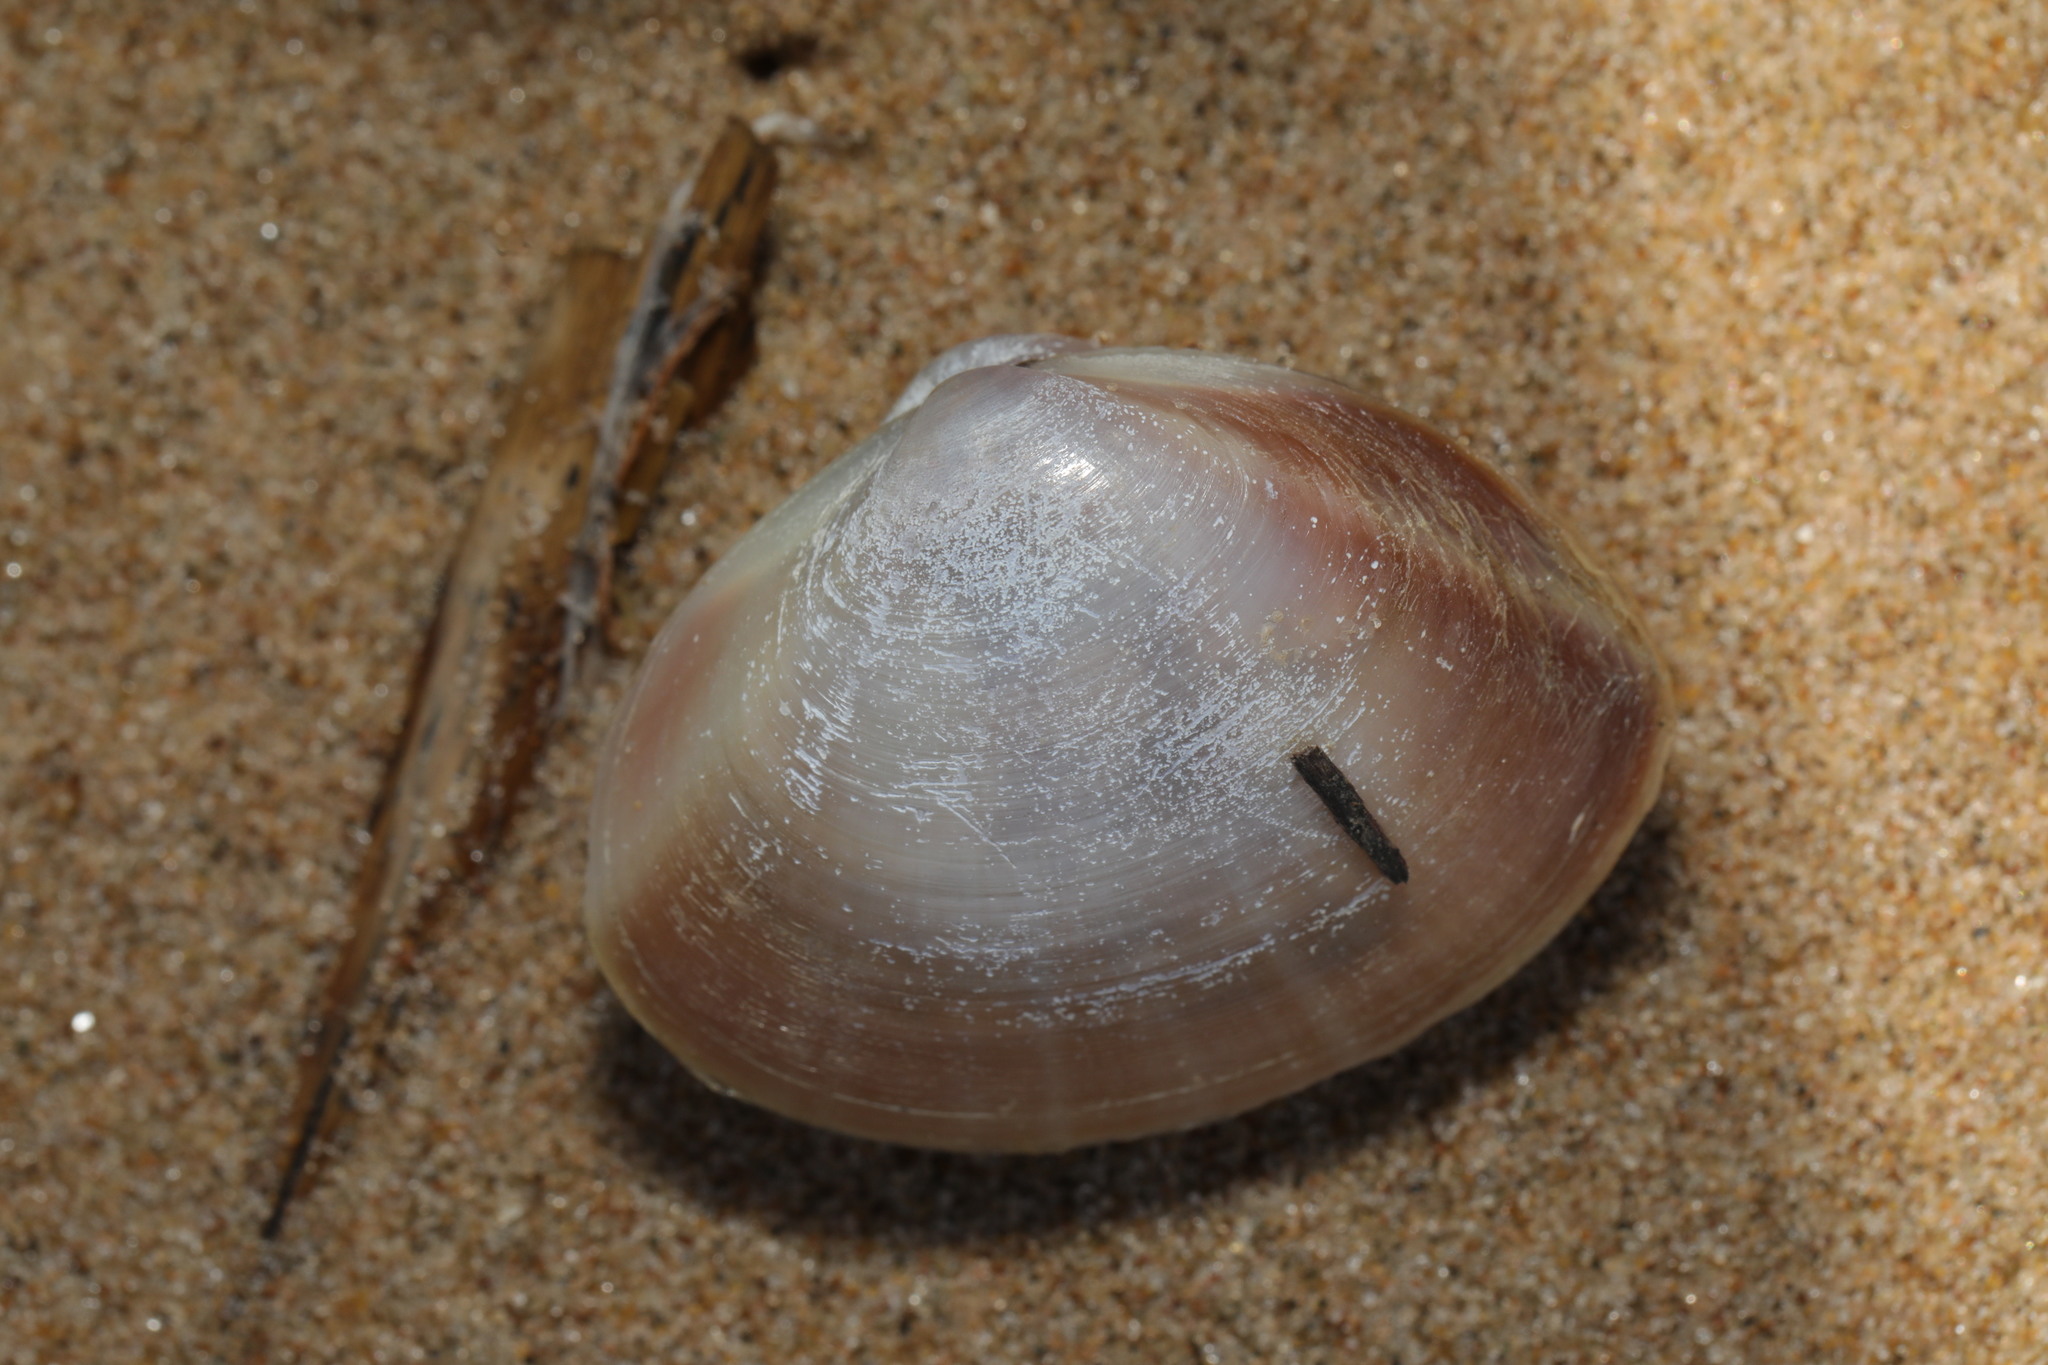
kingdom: Animalia
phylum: Mollusca
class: Bivalvia
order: Venerida
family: Mactridae
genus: Mactra
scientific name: Mactra stultorum
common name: Rayed trough shell
